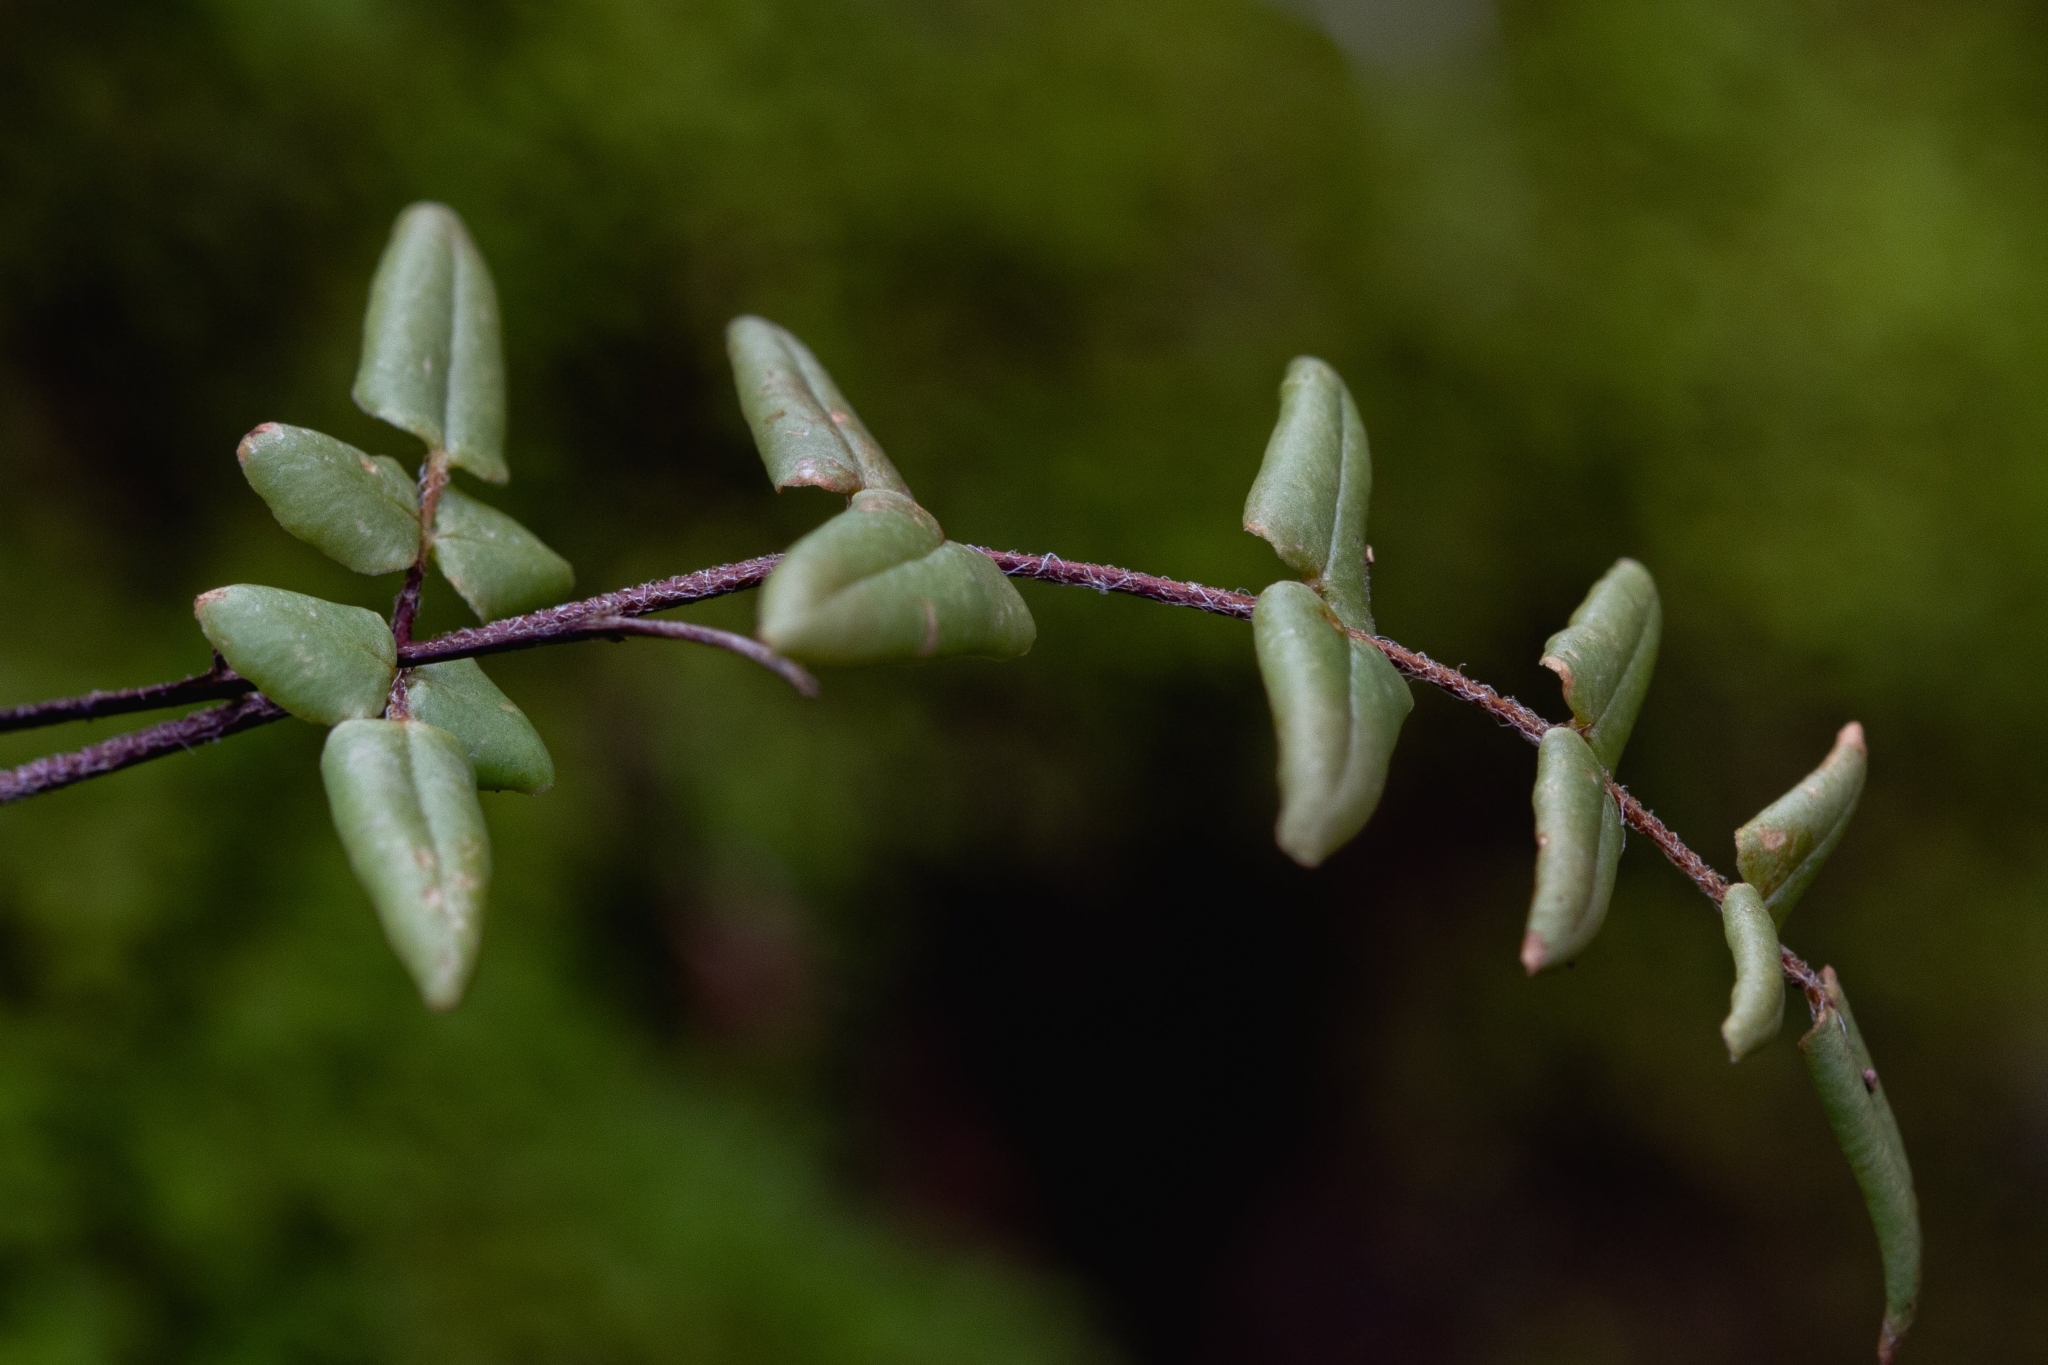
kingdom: Plantae
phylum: Tracheophyta
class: Polypodiopsida
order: Polypodiales
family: Pteridaceae
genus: Pellaea
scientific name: Pellaea atropurpurea
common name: Hairy cliffbrake
